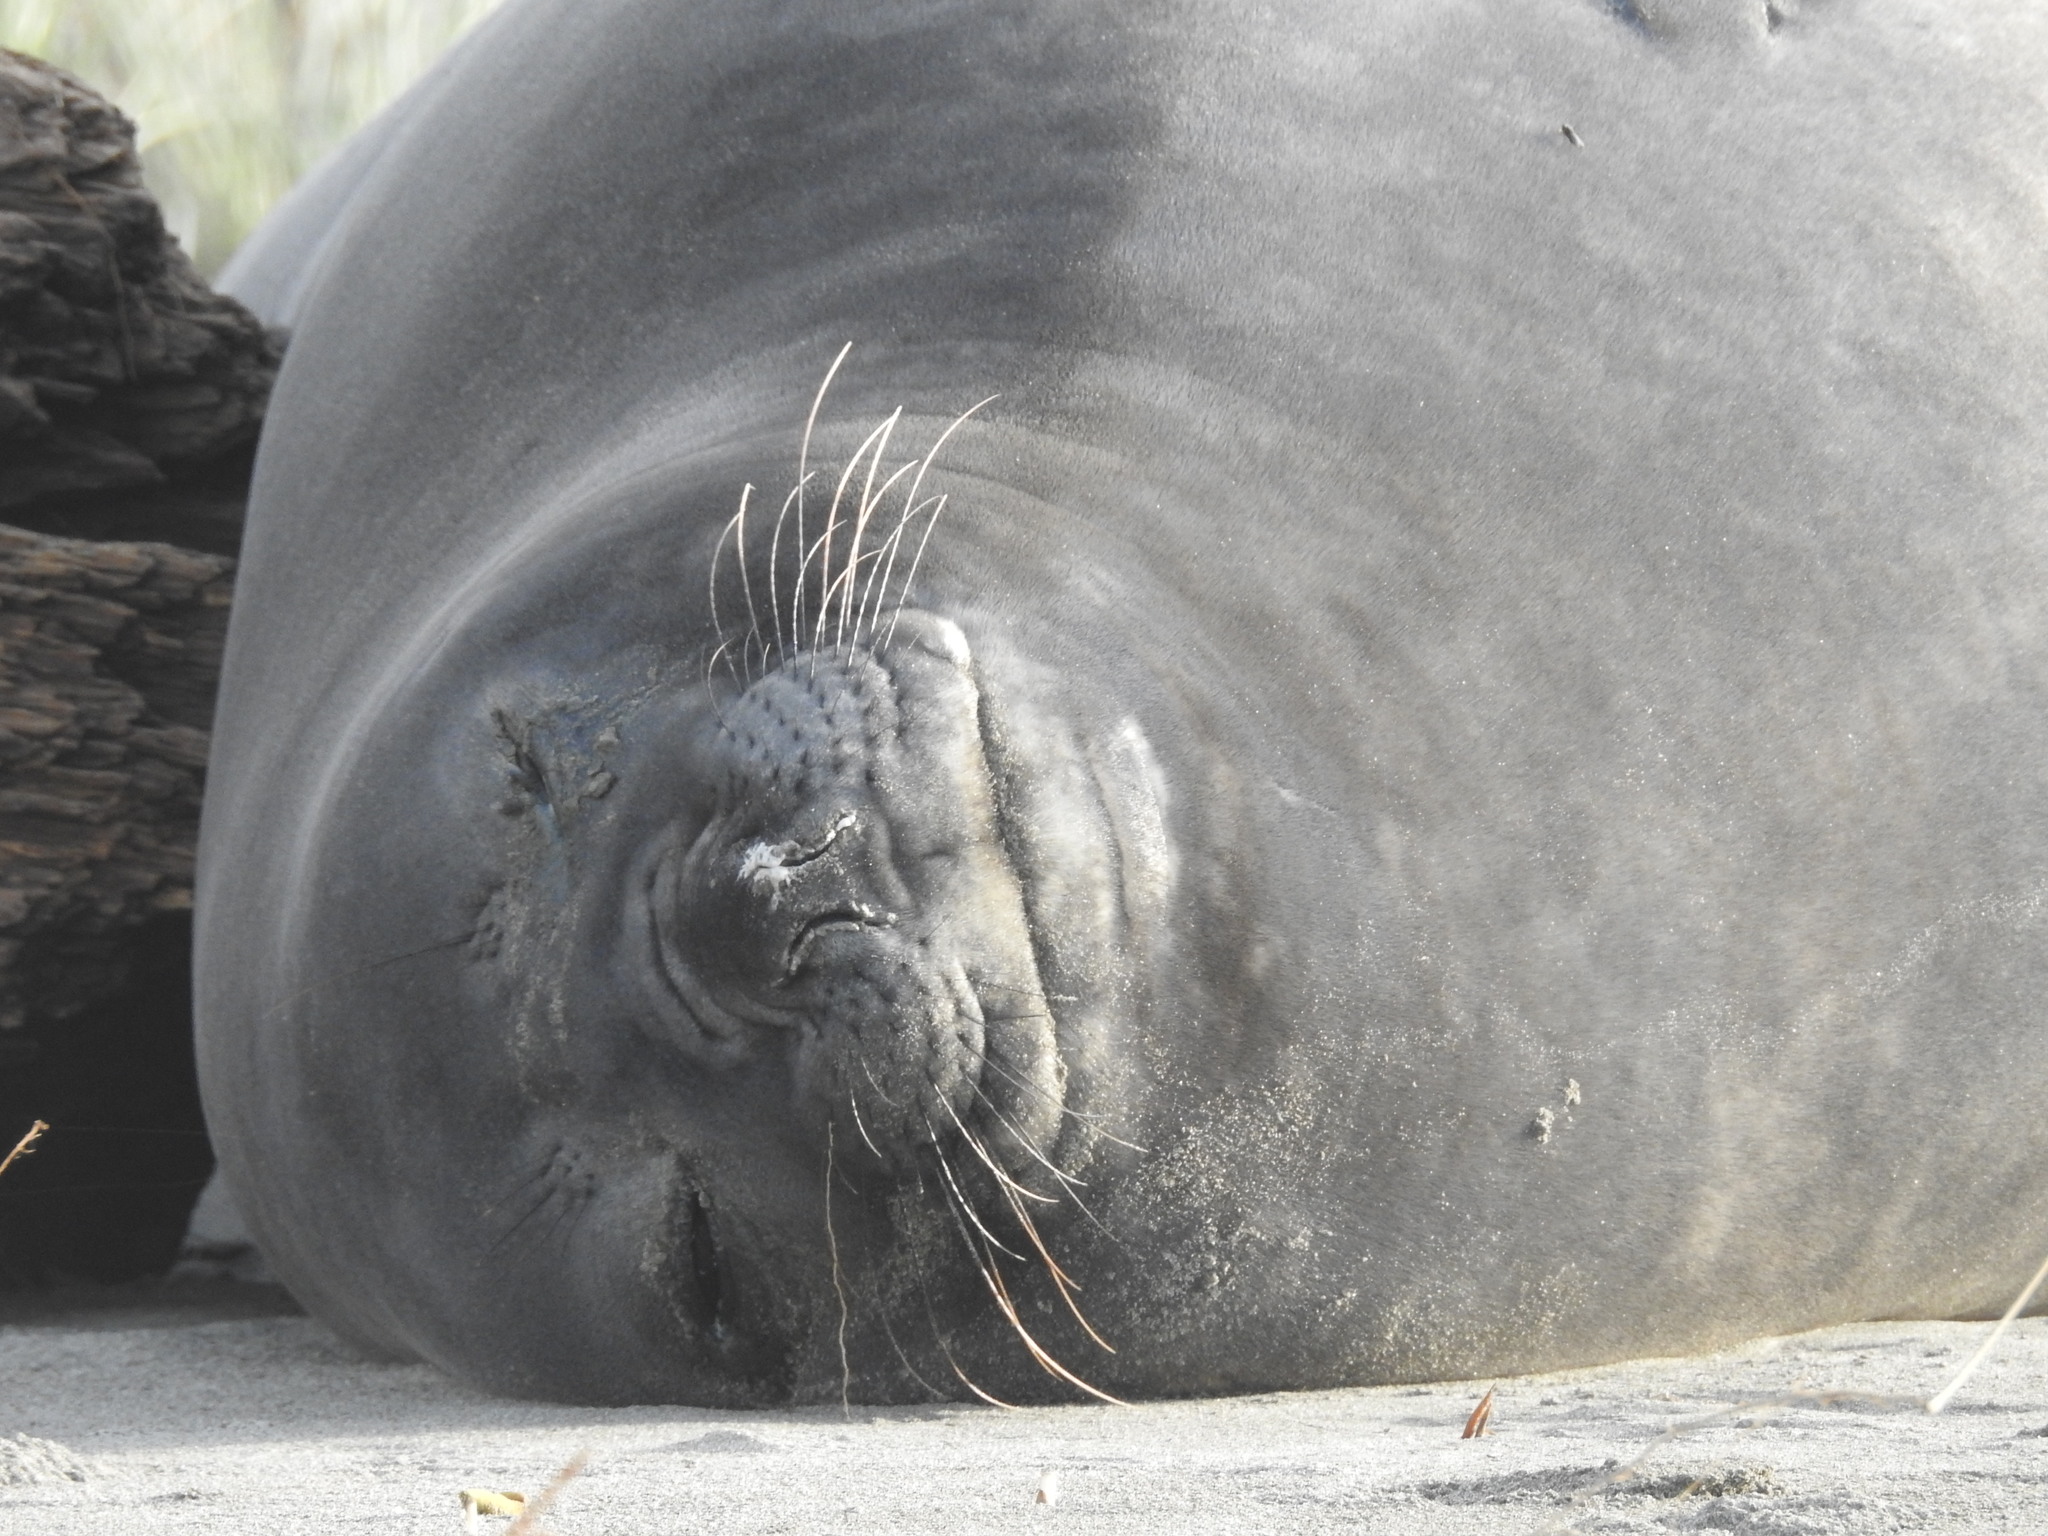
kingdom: Animalia
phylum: Chordata
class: Mammalia
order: Carnivora
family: Phocidae
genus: Mirounga
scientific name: Mirounga leonina
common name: Southern elephant seal
